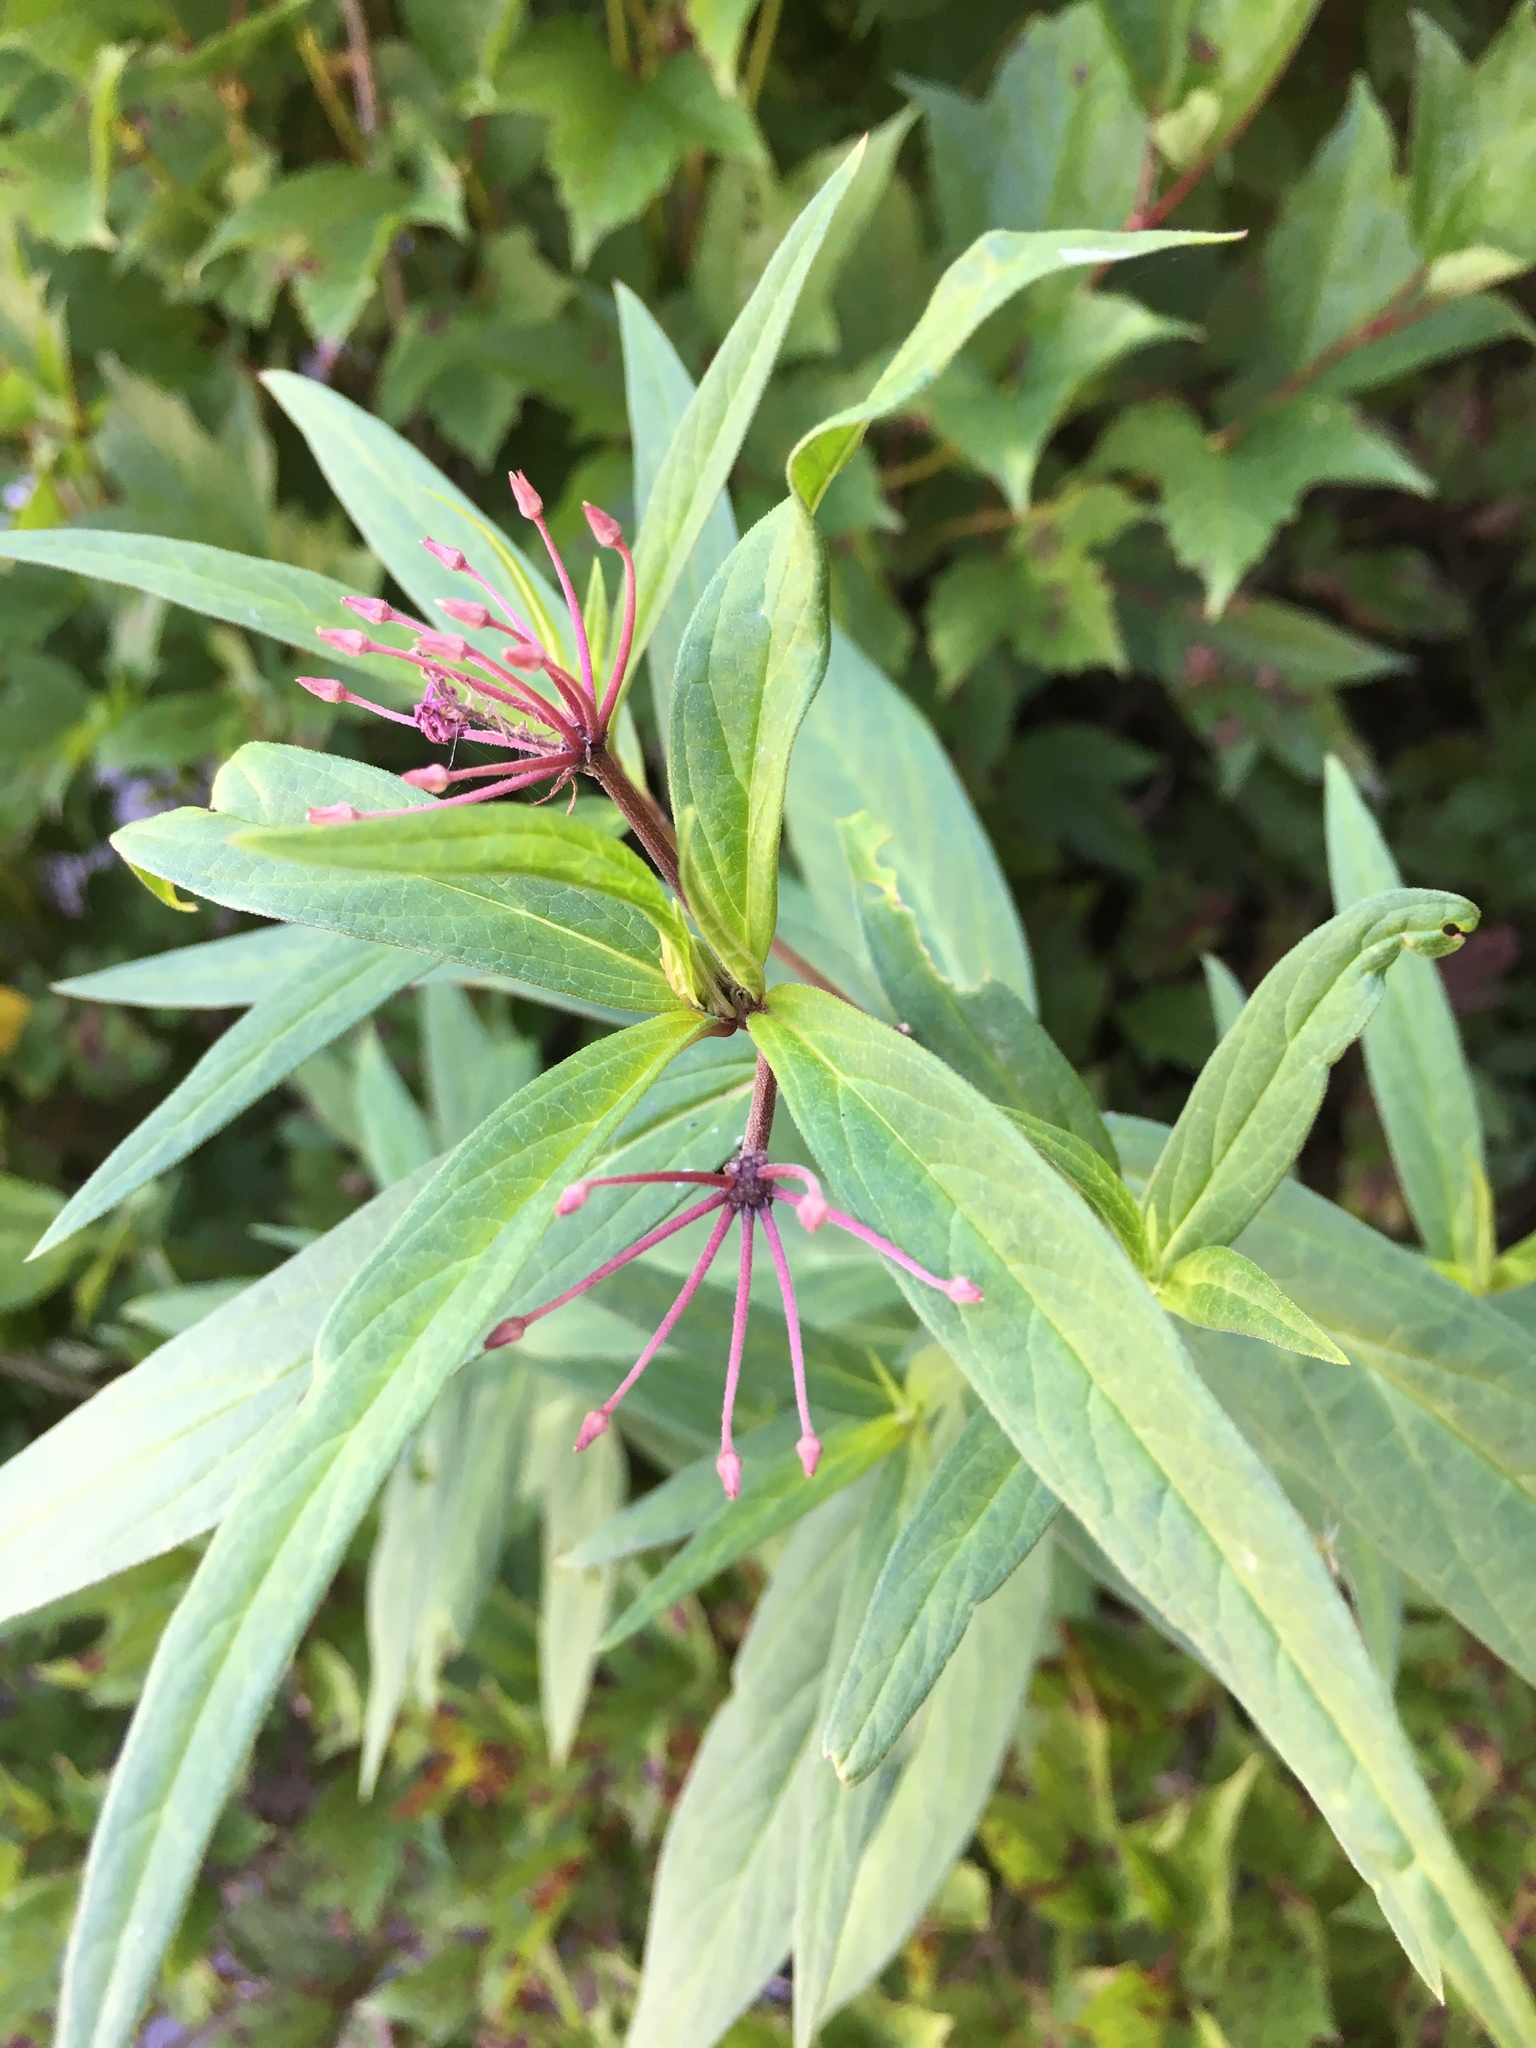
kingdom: Plantae
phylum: Tracheophyta
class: Magnoliopsida
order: Gentianales
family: Apocynaceae
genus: Asclepias
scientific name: Asclepias incarnata
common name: Swamp milkweed
